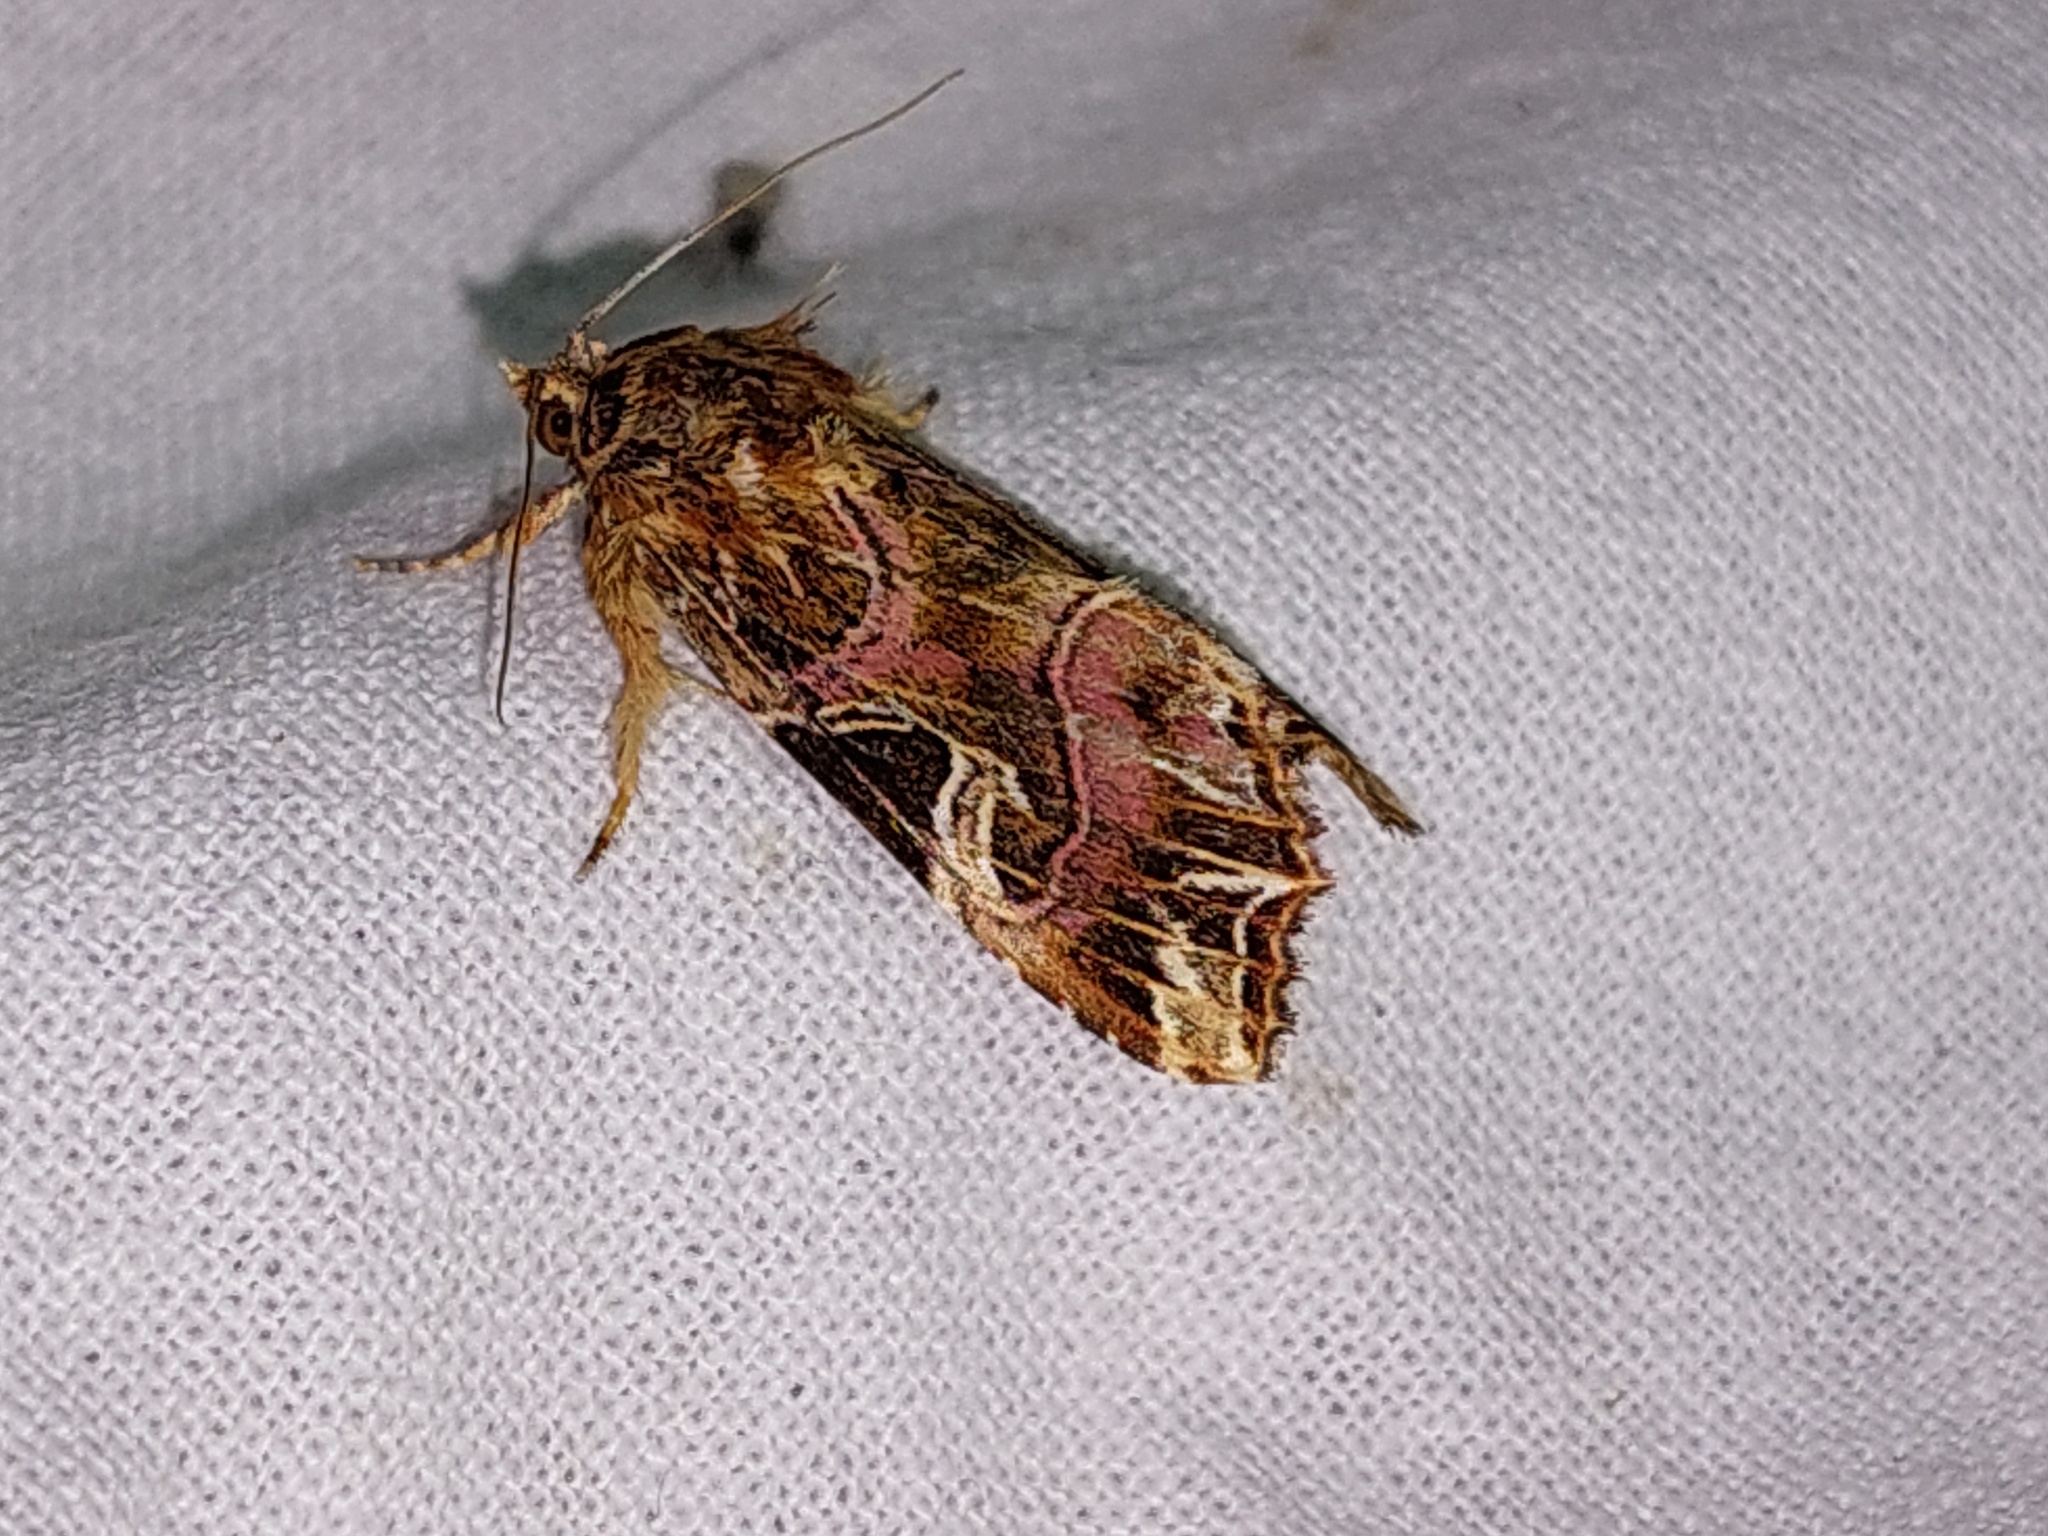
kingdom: Animalia
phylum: Arthropoda
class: Insecta
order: Lepidoptera
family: Noctuidae
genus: Callopistria
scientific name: Callopistria juventina
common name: Latin
